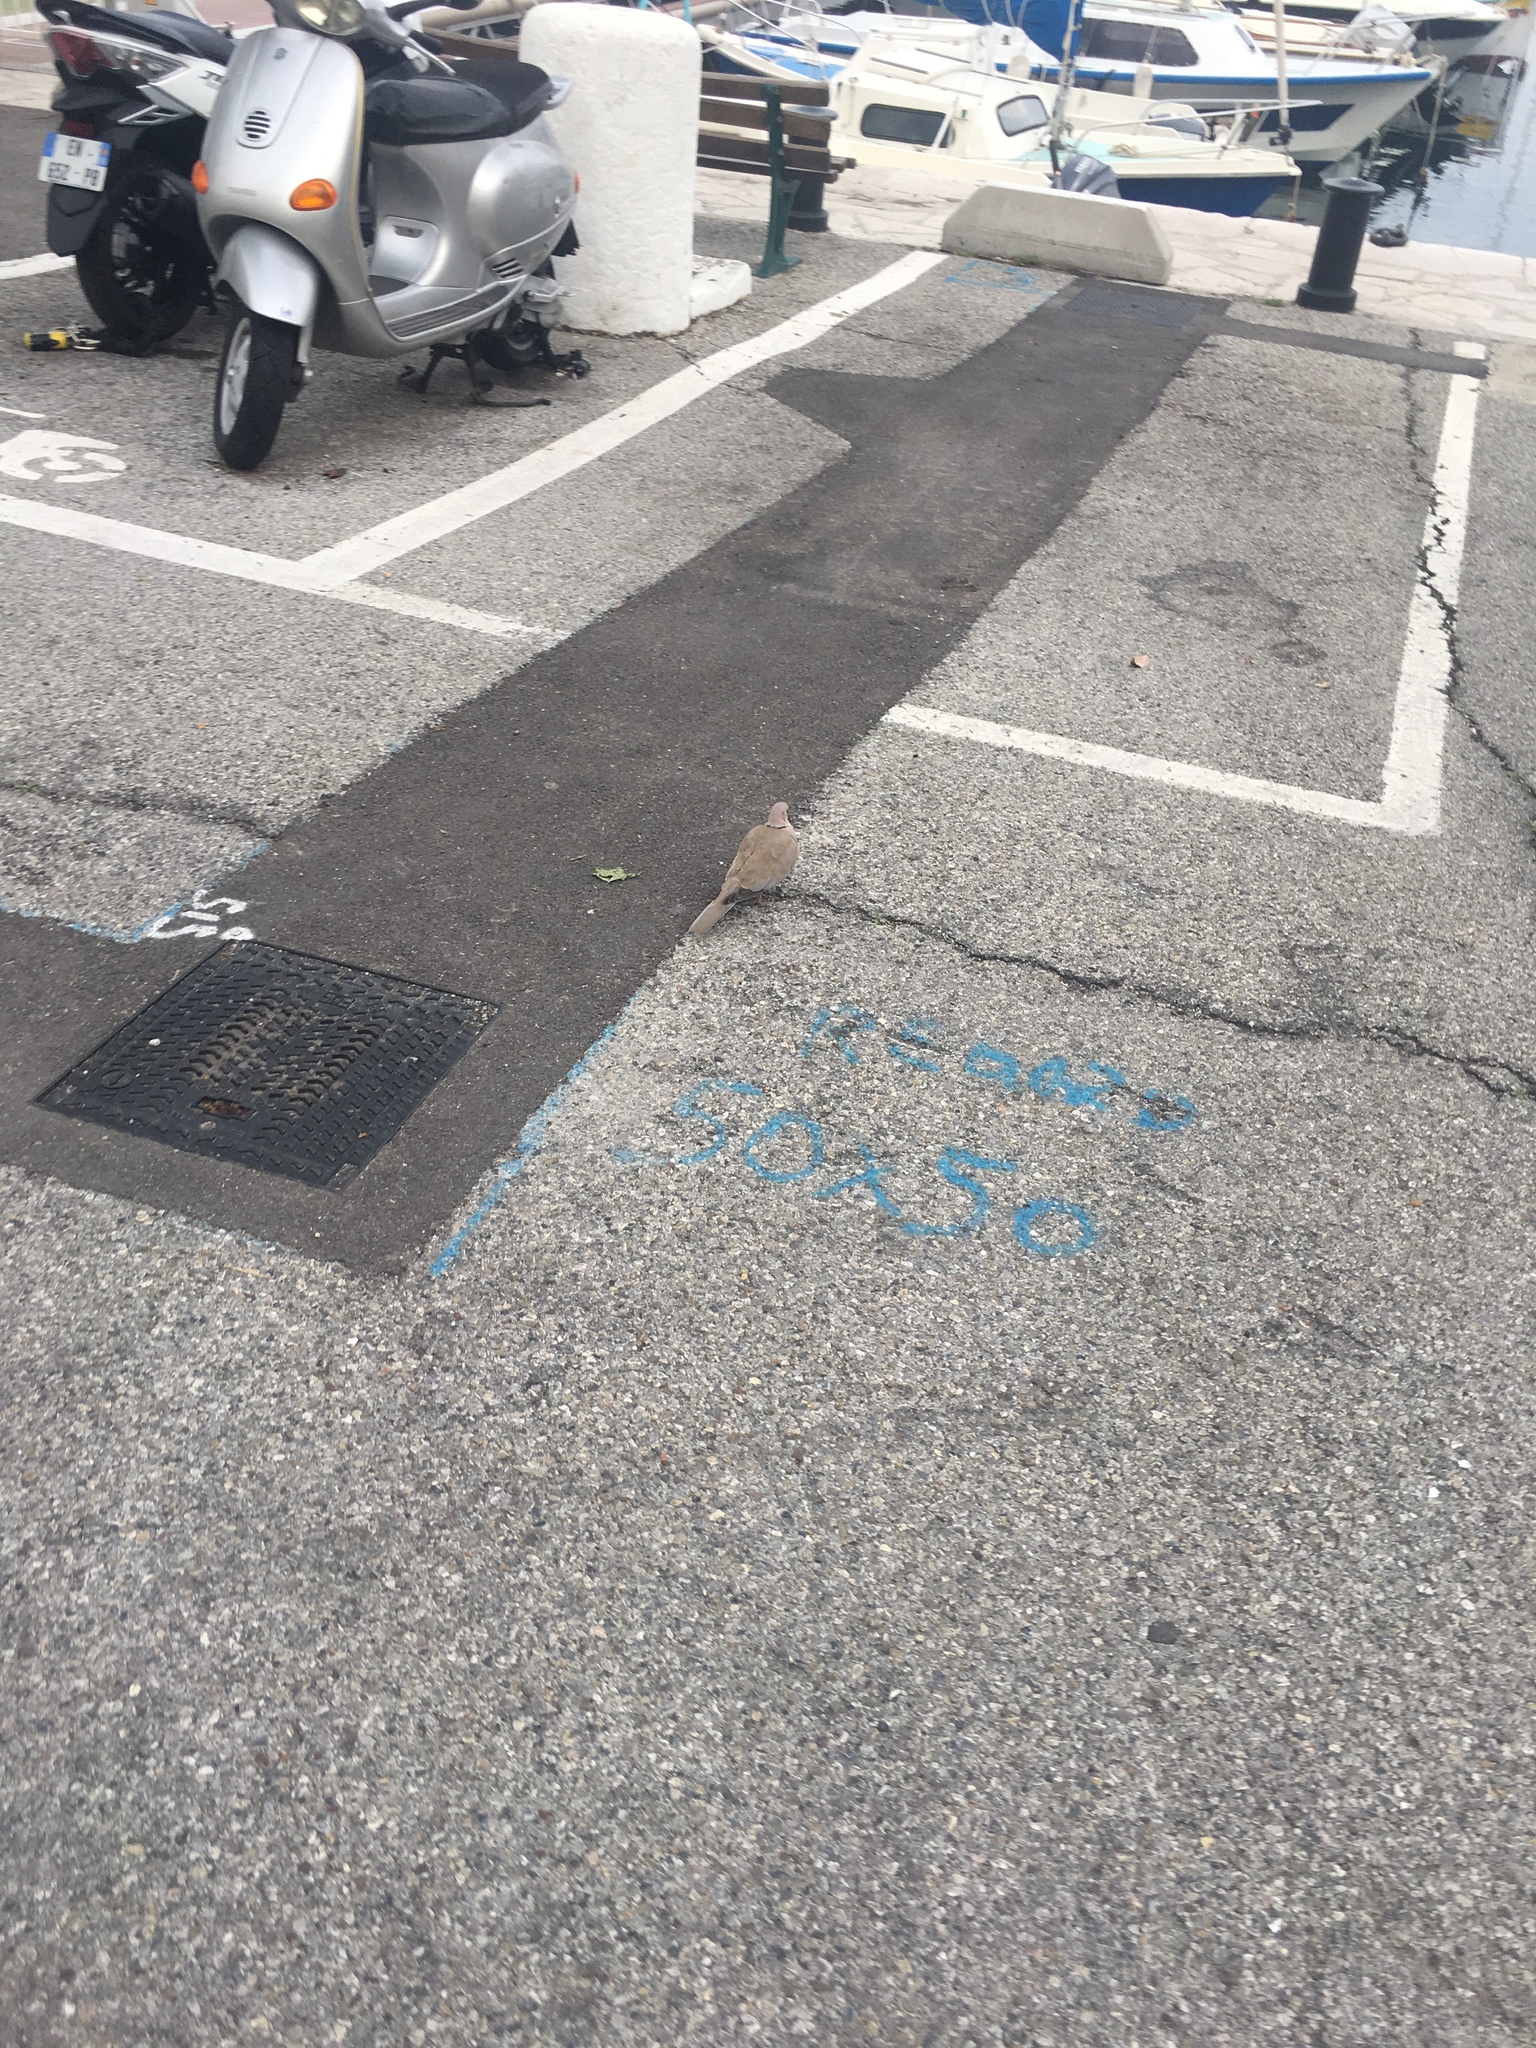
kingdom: Animalia
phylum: Chordata
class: Aves
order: Columbiformes
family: Columbidae
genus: Streptopelia
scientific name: Streptopelia decaocto
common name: Eurasian collared dove
